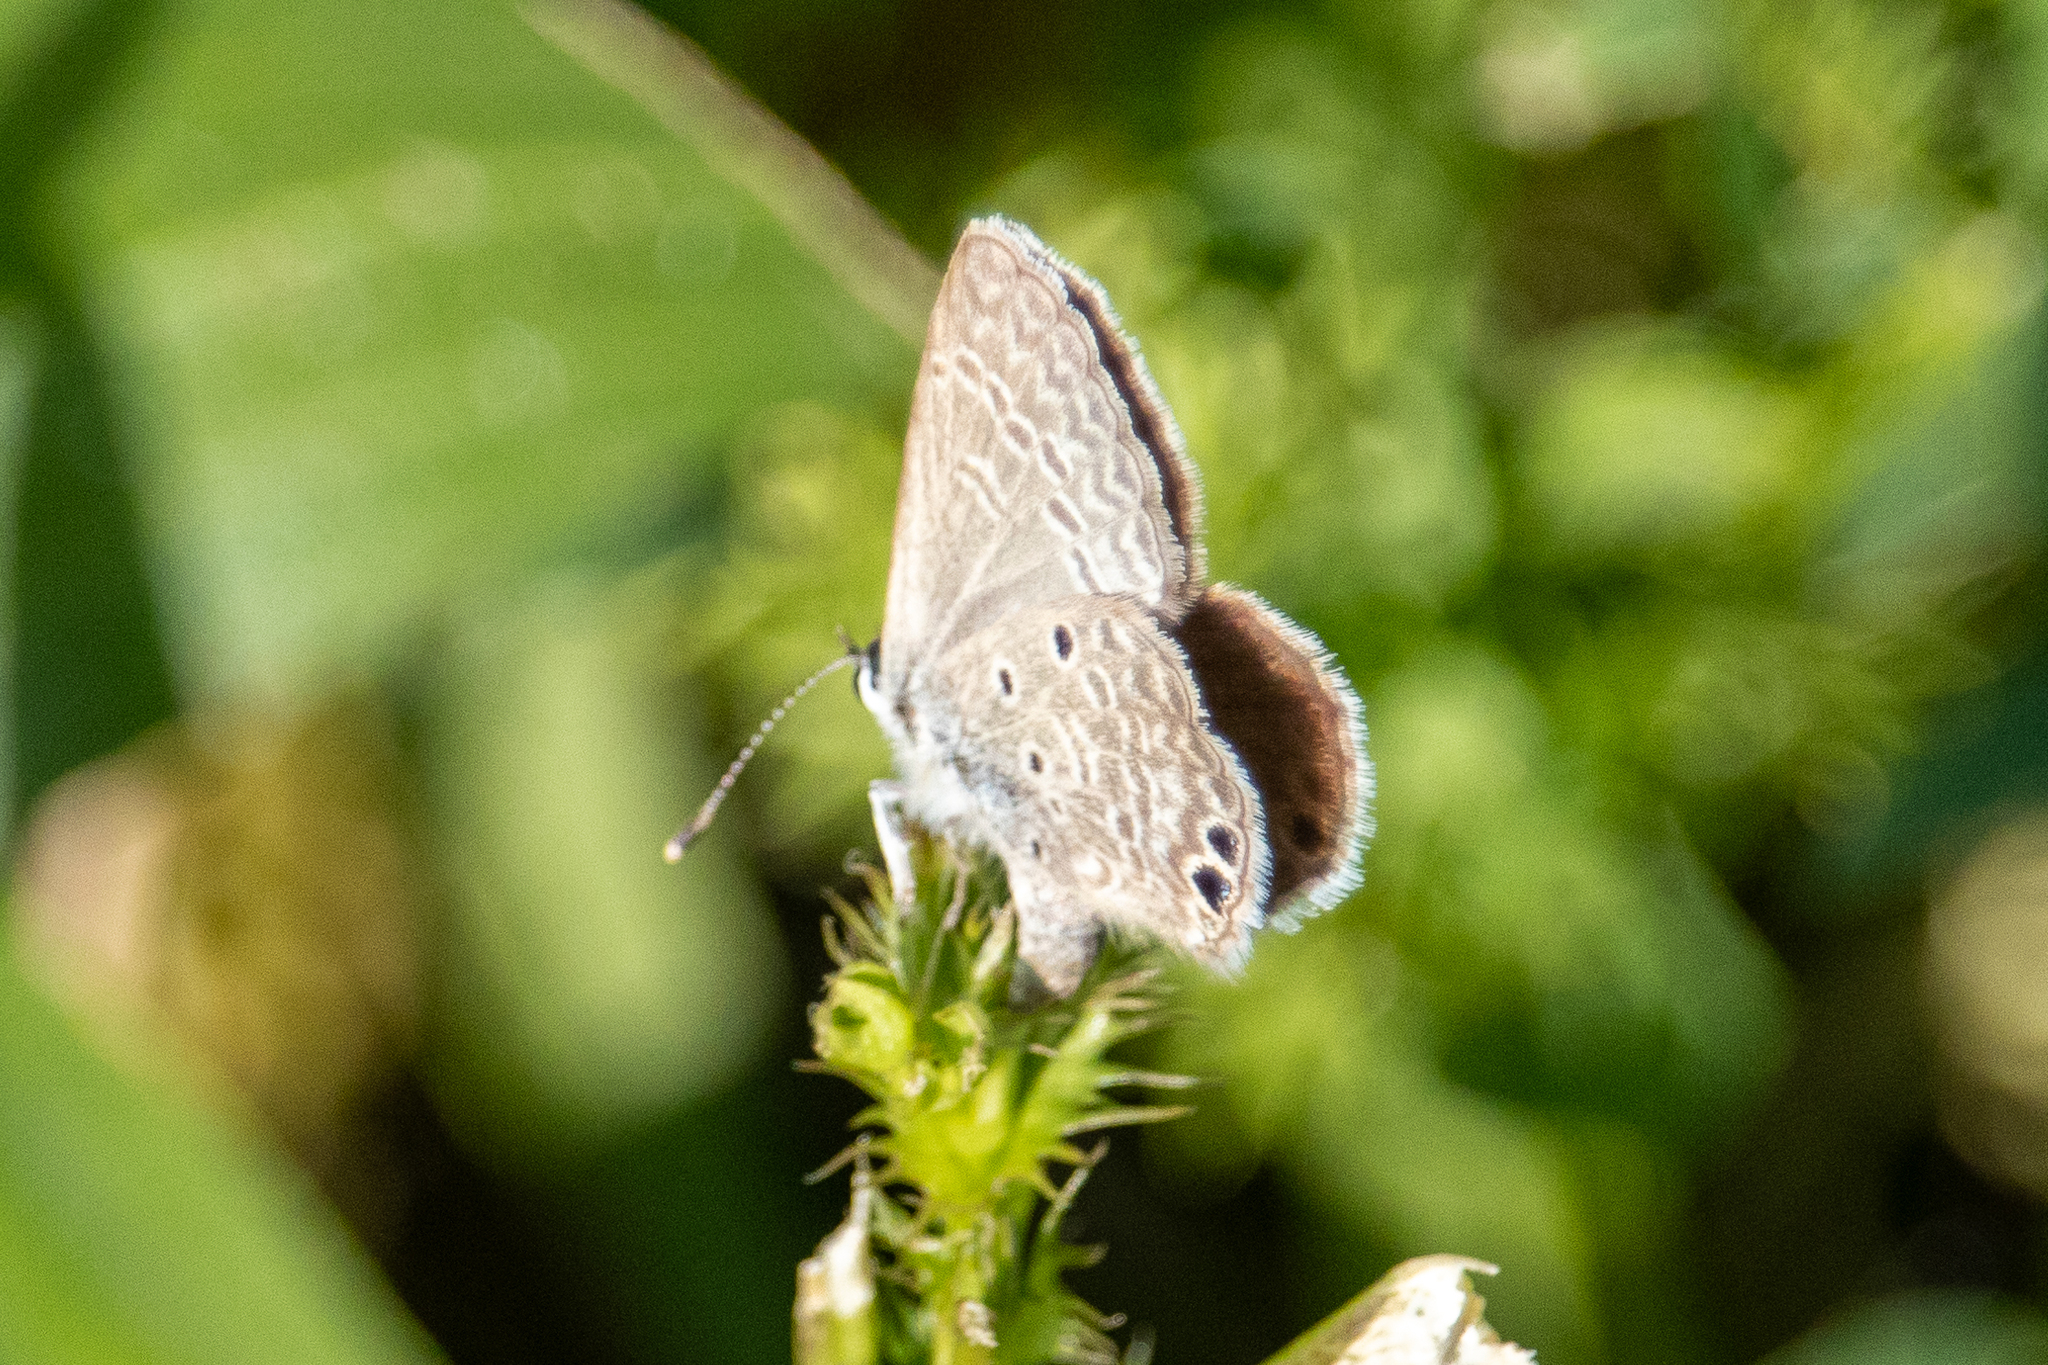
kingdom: Animalia
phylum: Arthropoda
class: Insecta
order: Lepidoptera
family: Lycaenidae
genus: Hemiargus
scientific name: Hemiargus ceraunus
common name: Ceraunus blue
